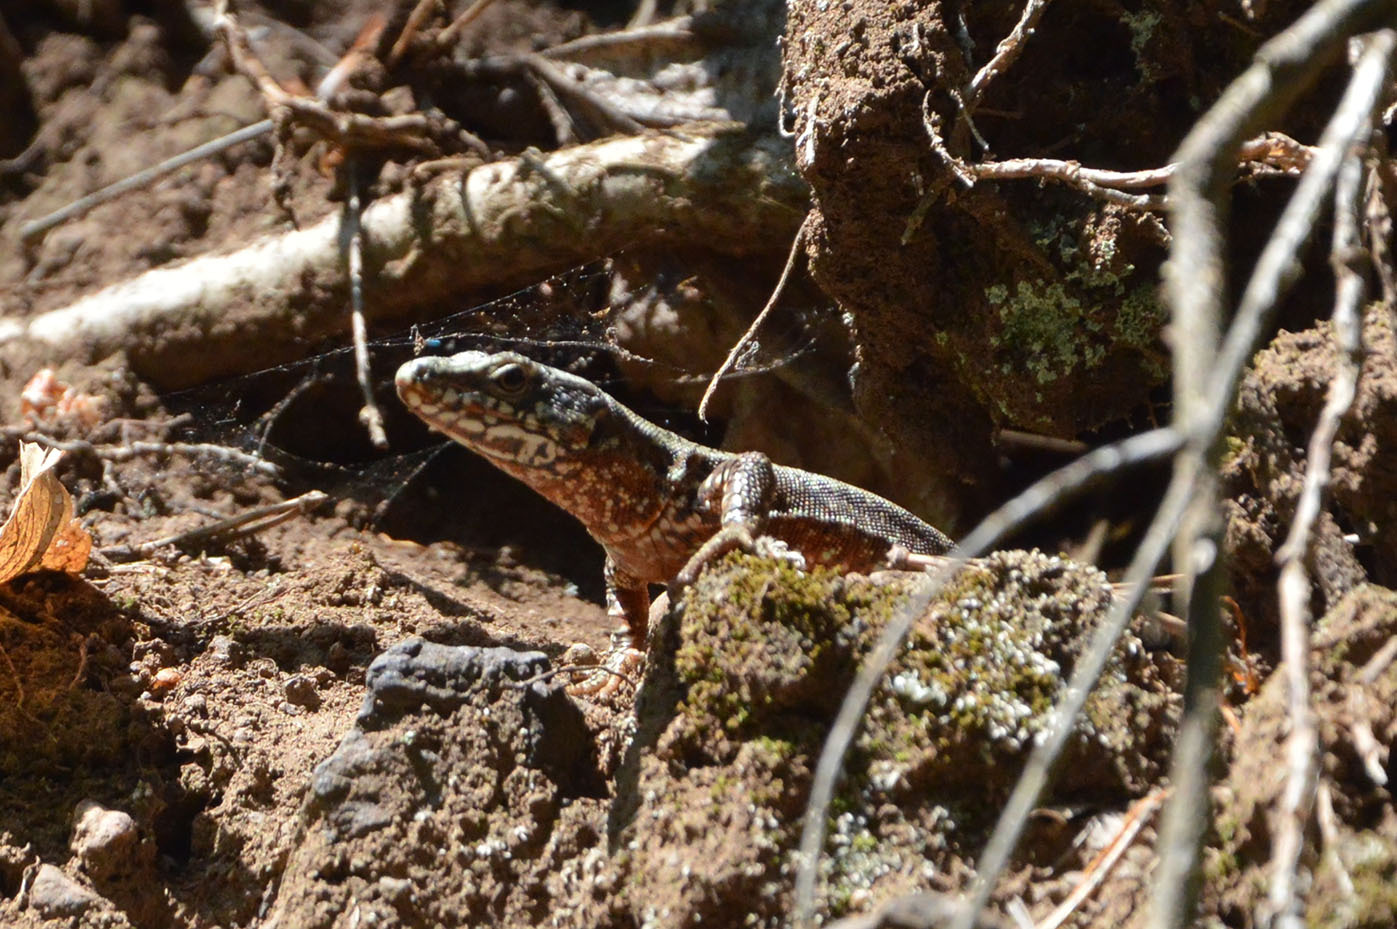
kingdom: Animalia
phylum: Chordata
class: Squamata
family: Lacertidae
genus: Podarcis
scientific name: Podarcis muralis
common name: Common wall lizard
